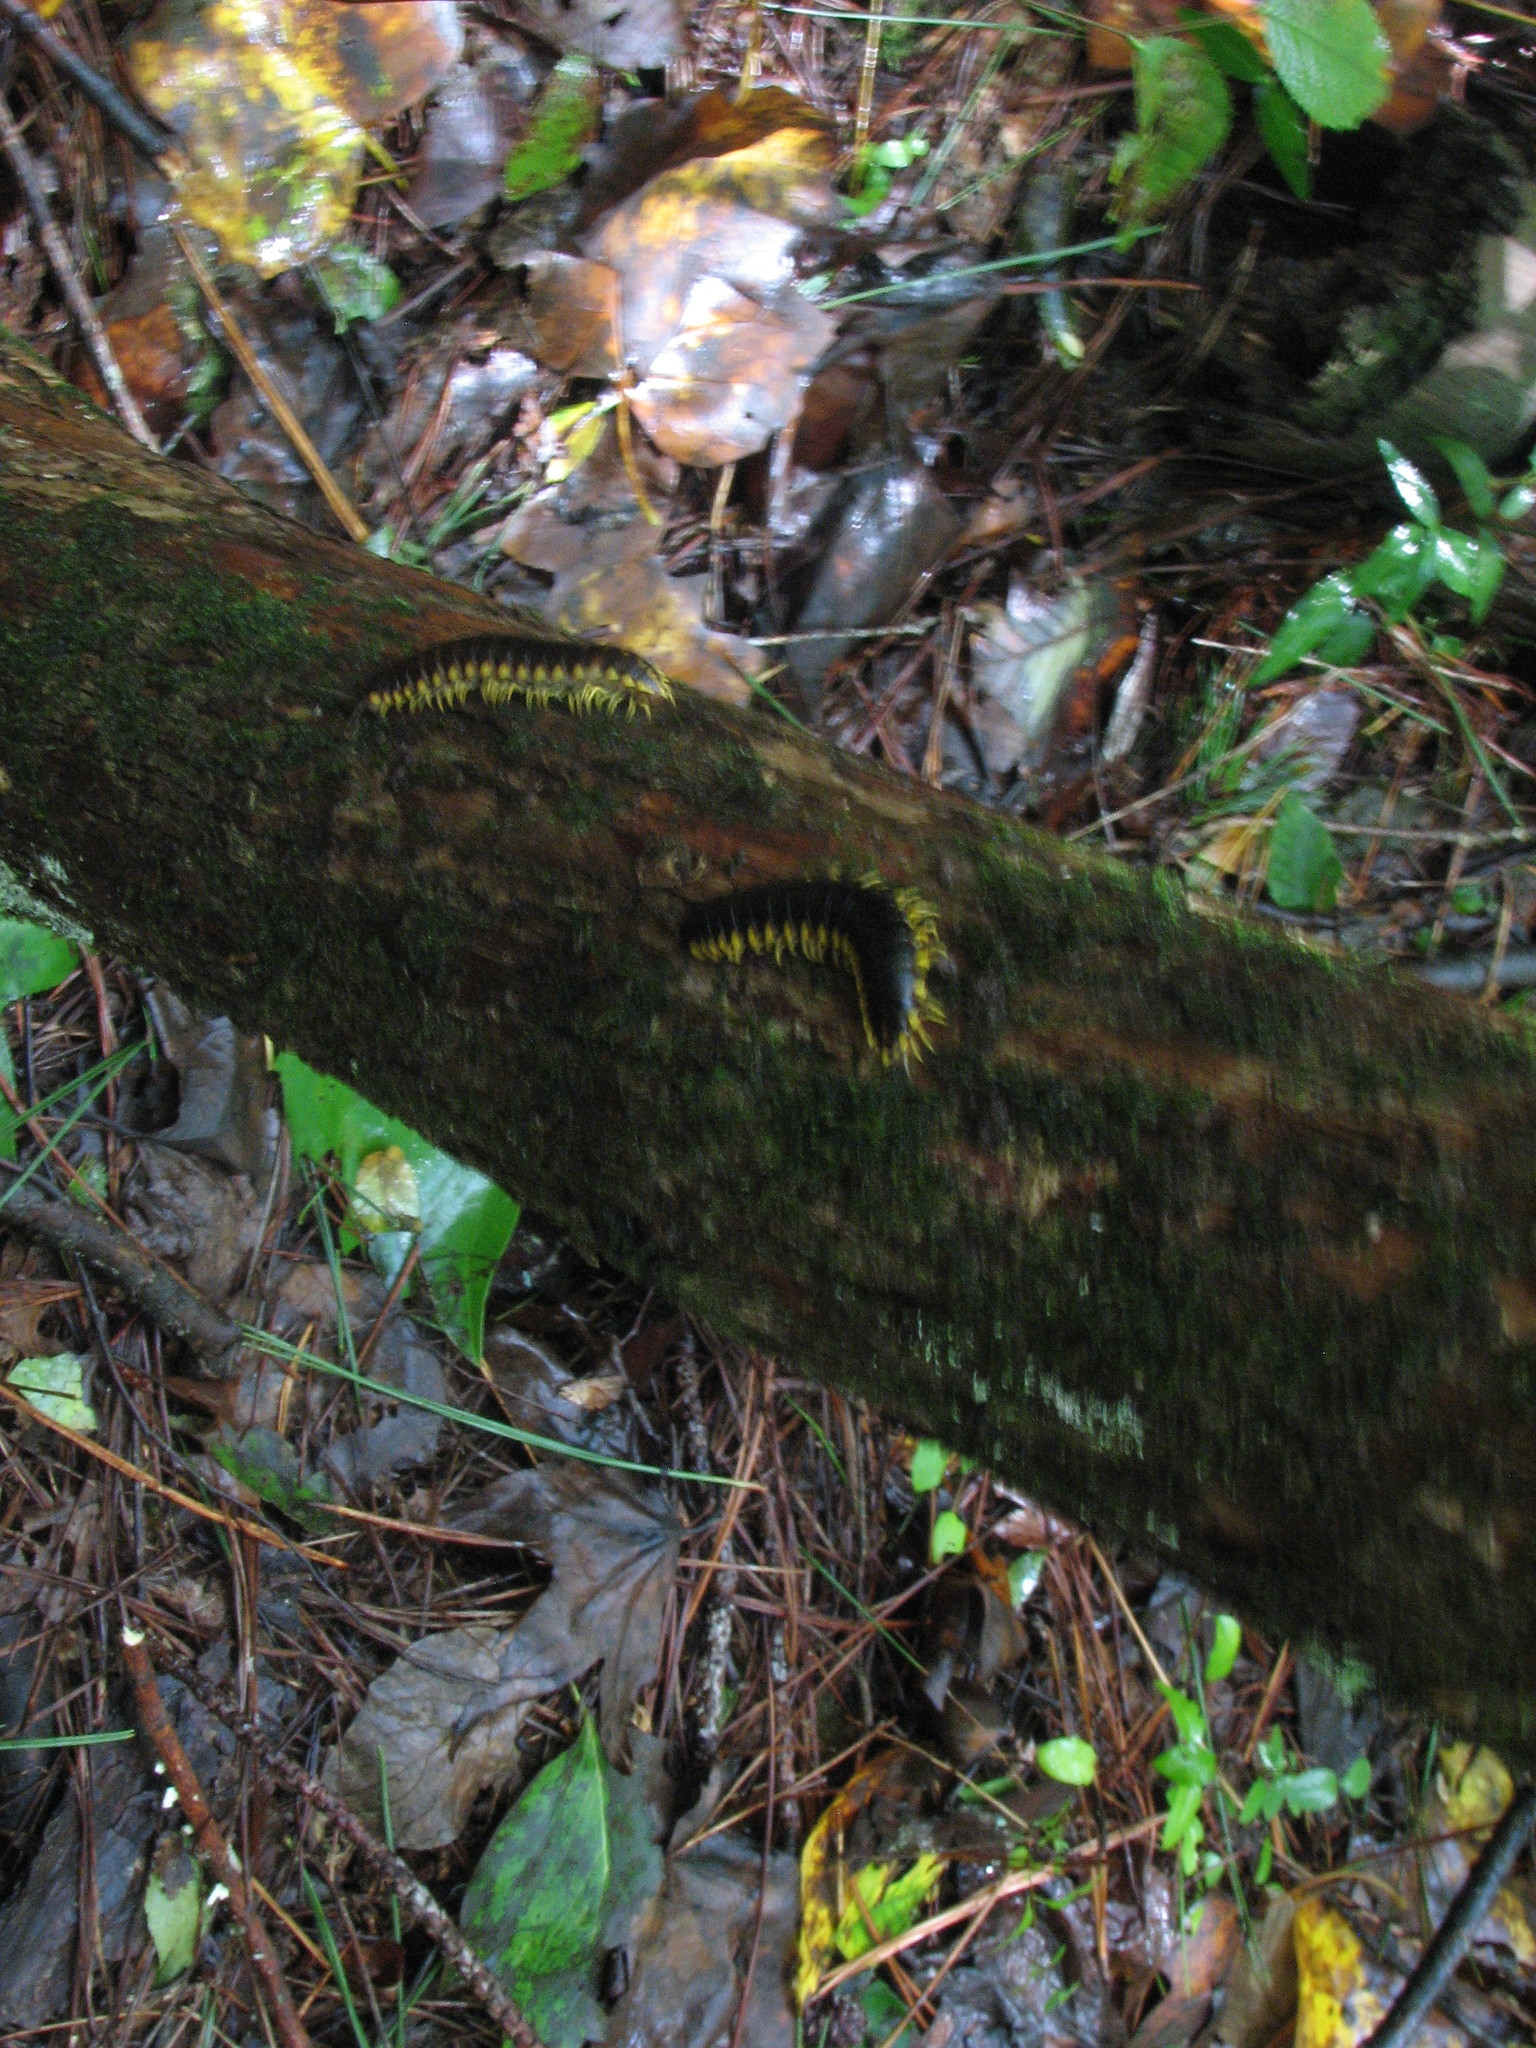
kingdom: Animalia
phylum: Arthropoda
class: Diplopoda
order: Polydesmida
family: Xystodesmidae
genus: Apheloria
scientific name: Apheloria tigana
